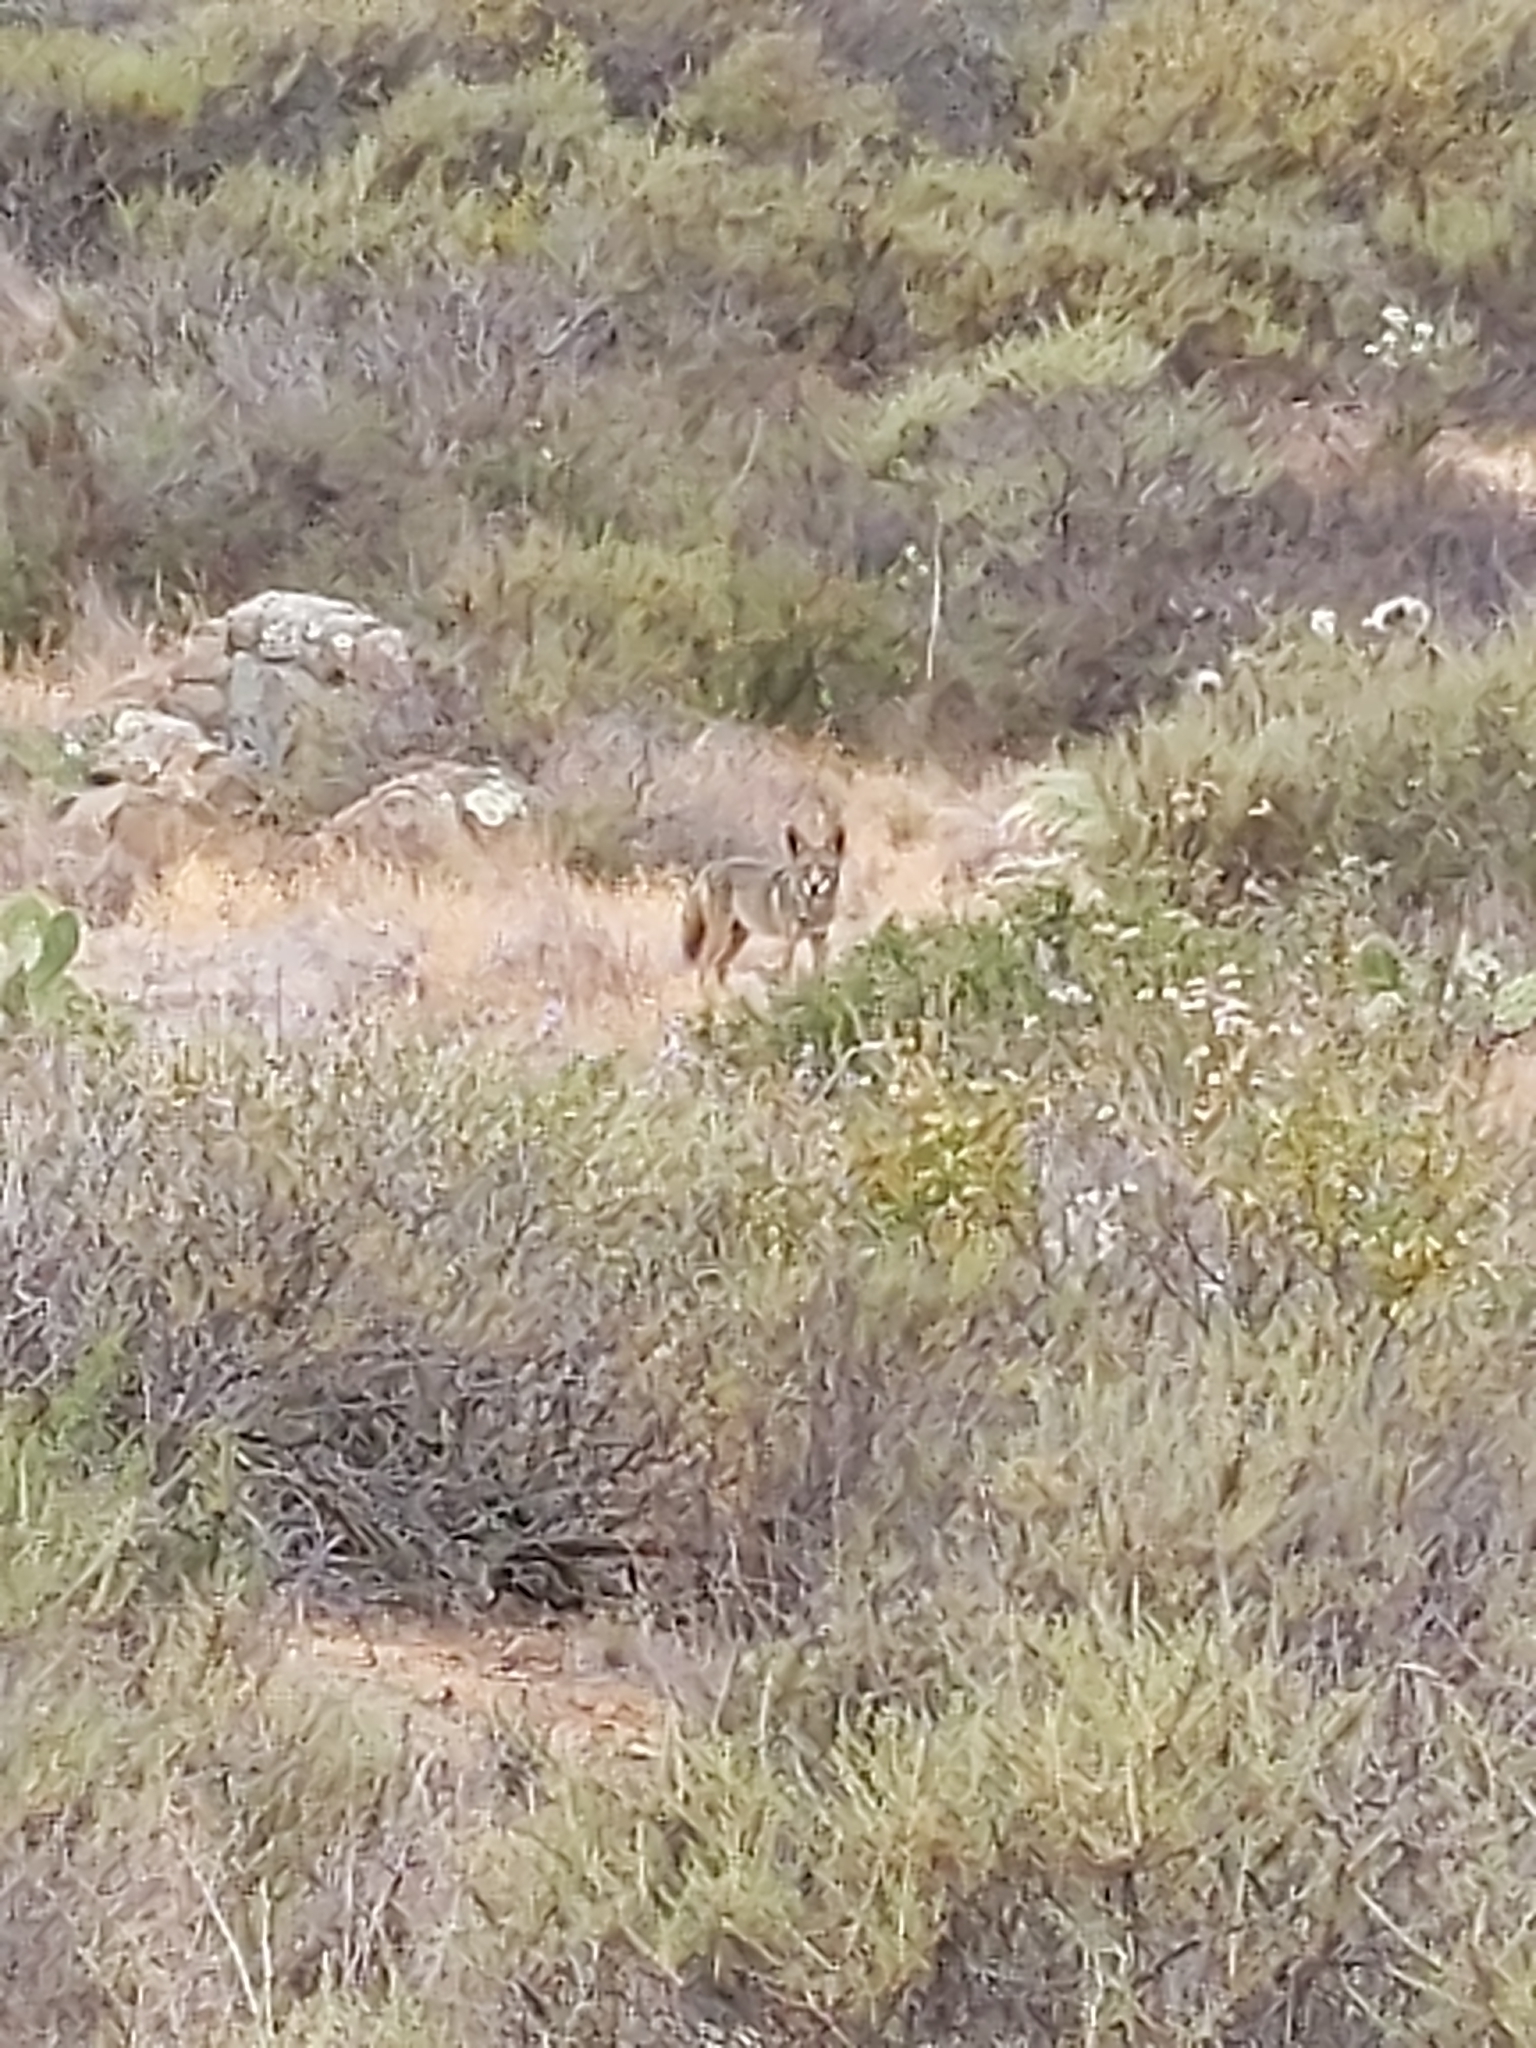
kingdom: Animalia
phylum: Chordata
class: Mammalia
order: Carnivora
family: Canidae
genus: Canis
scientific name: Canis latrans
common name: Coyote
